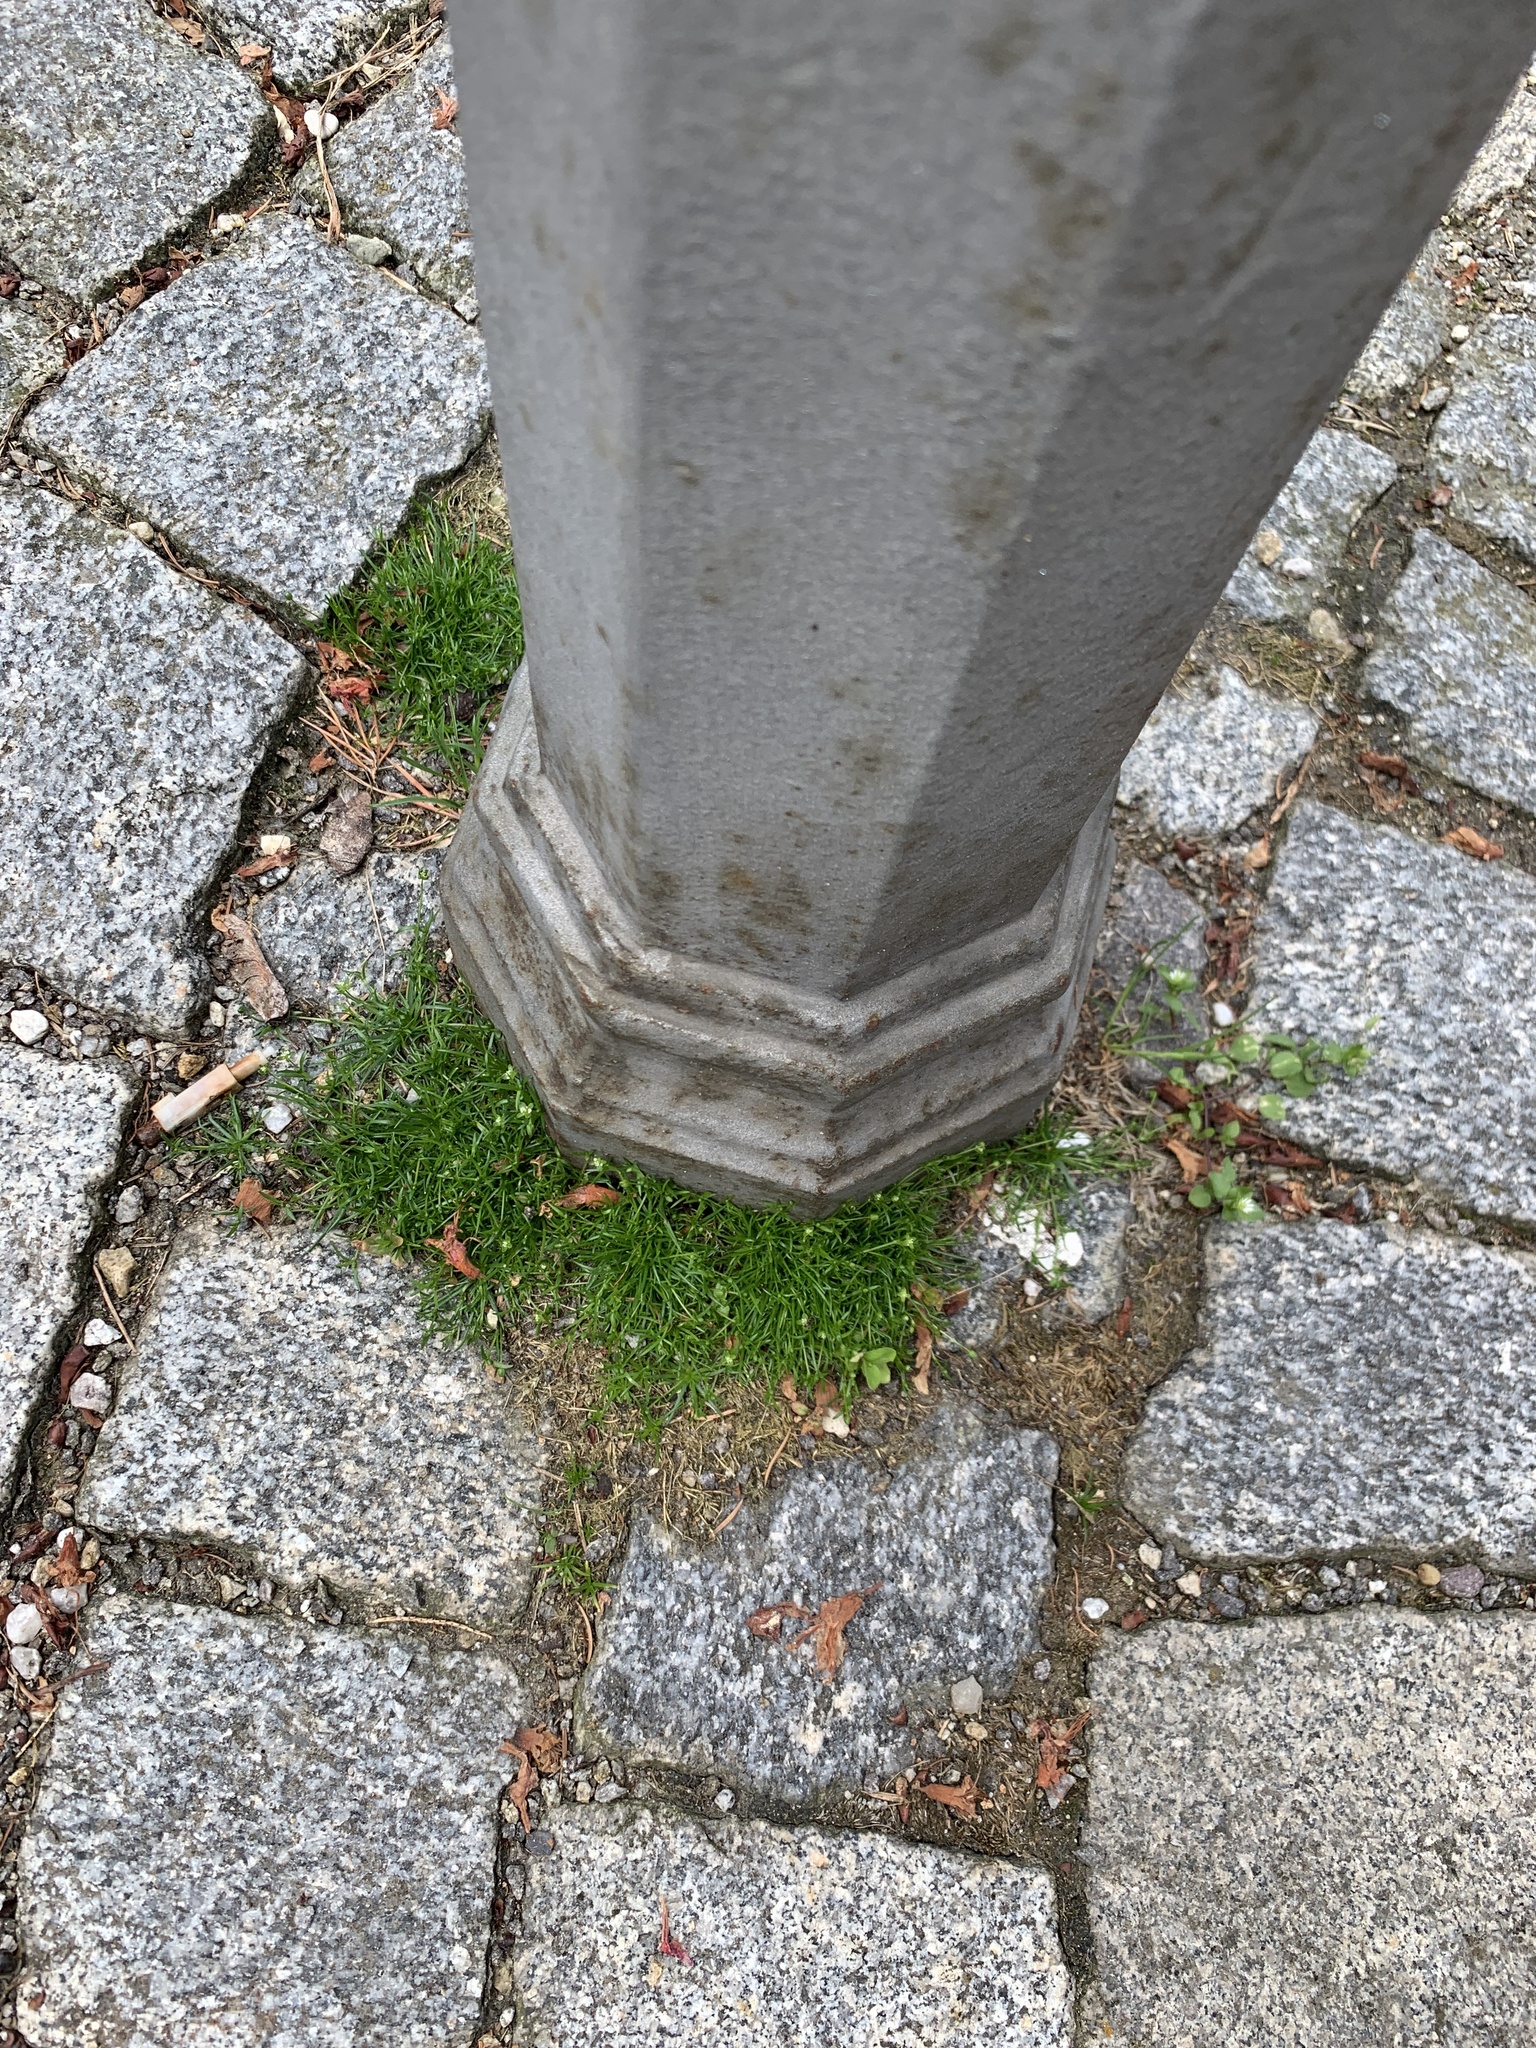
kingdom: Plantae
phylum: Tracheophyta
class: Magnoliopsida
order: Caryophyllales
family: Caryophyllaceae
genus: Sagina
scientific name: Sagina procumbens
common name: Procumbent pearlwort
